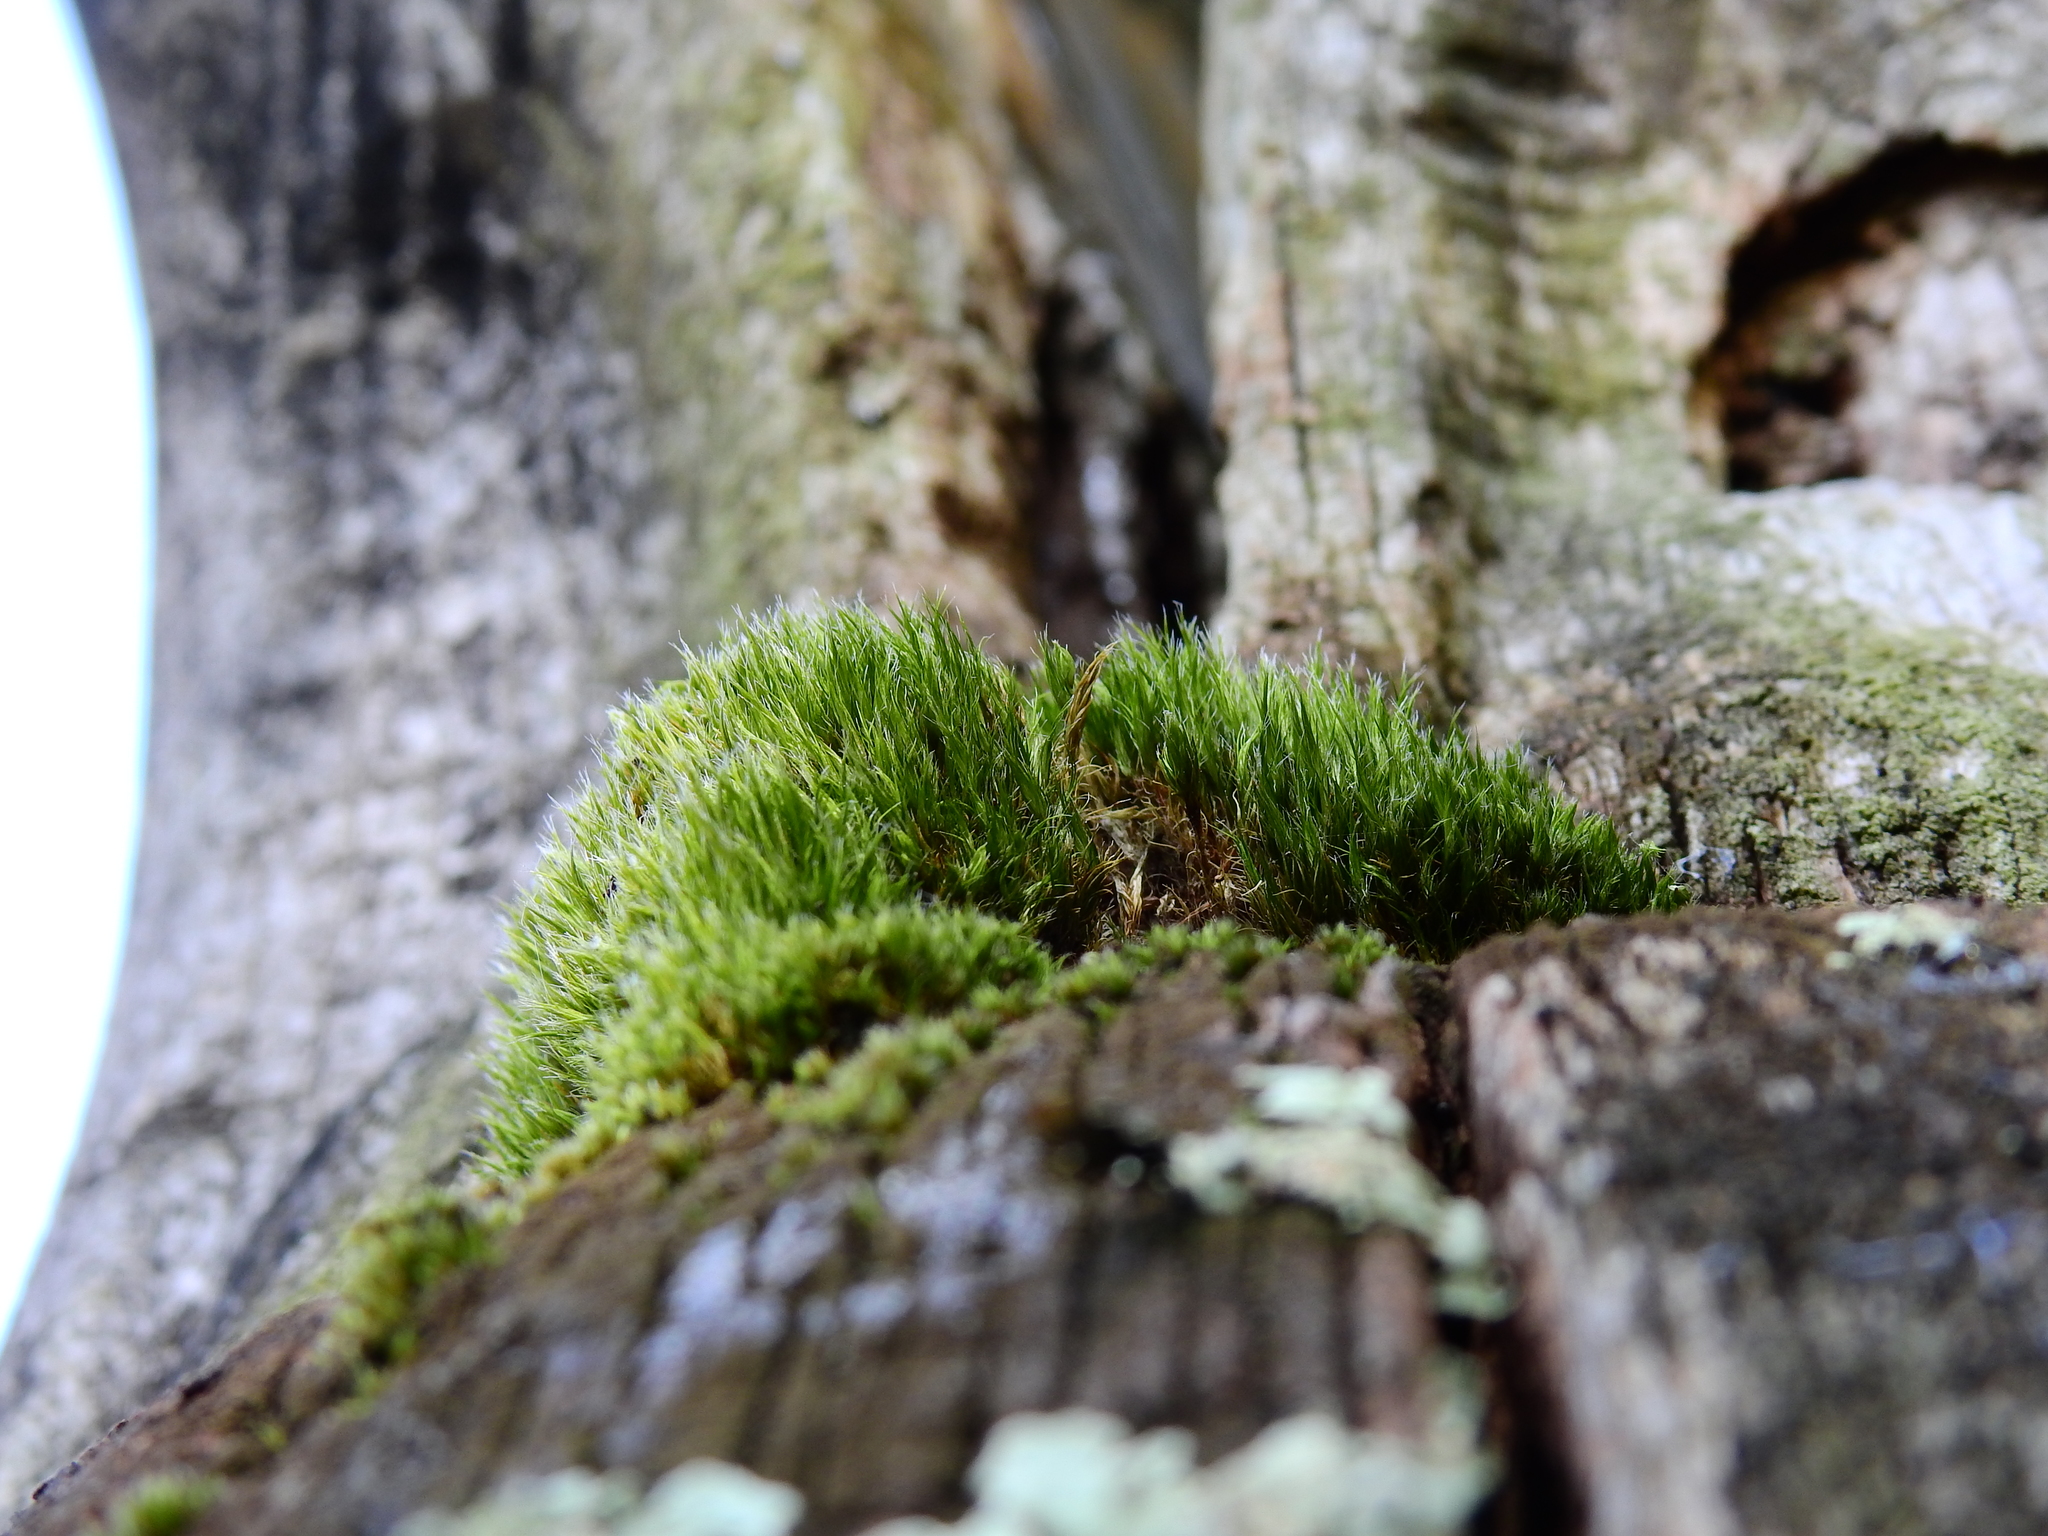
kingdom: Plantae
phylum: Bryophyta
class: Bryopsida
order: Dicranales
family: Leucobryaceae
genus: Campylopus
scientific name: Campylopus introflexus
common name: Heath star moss
